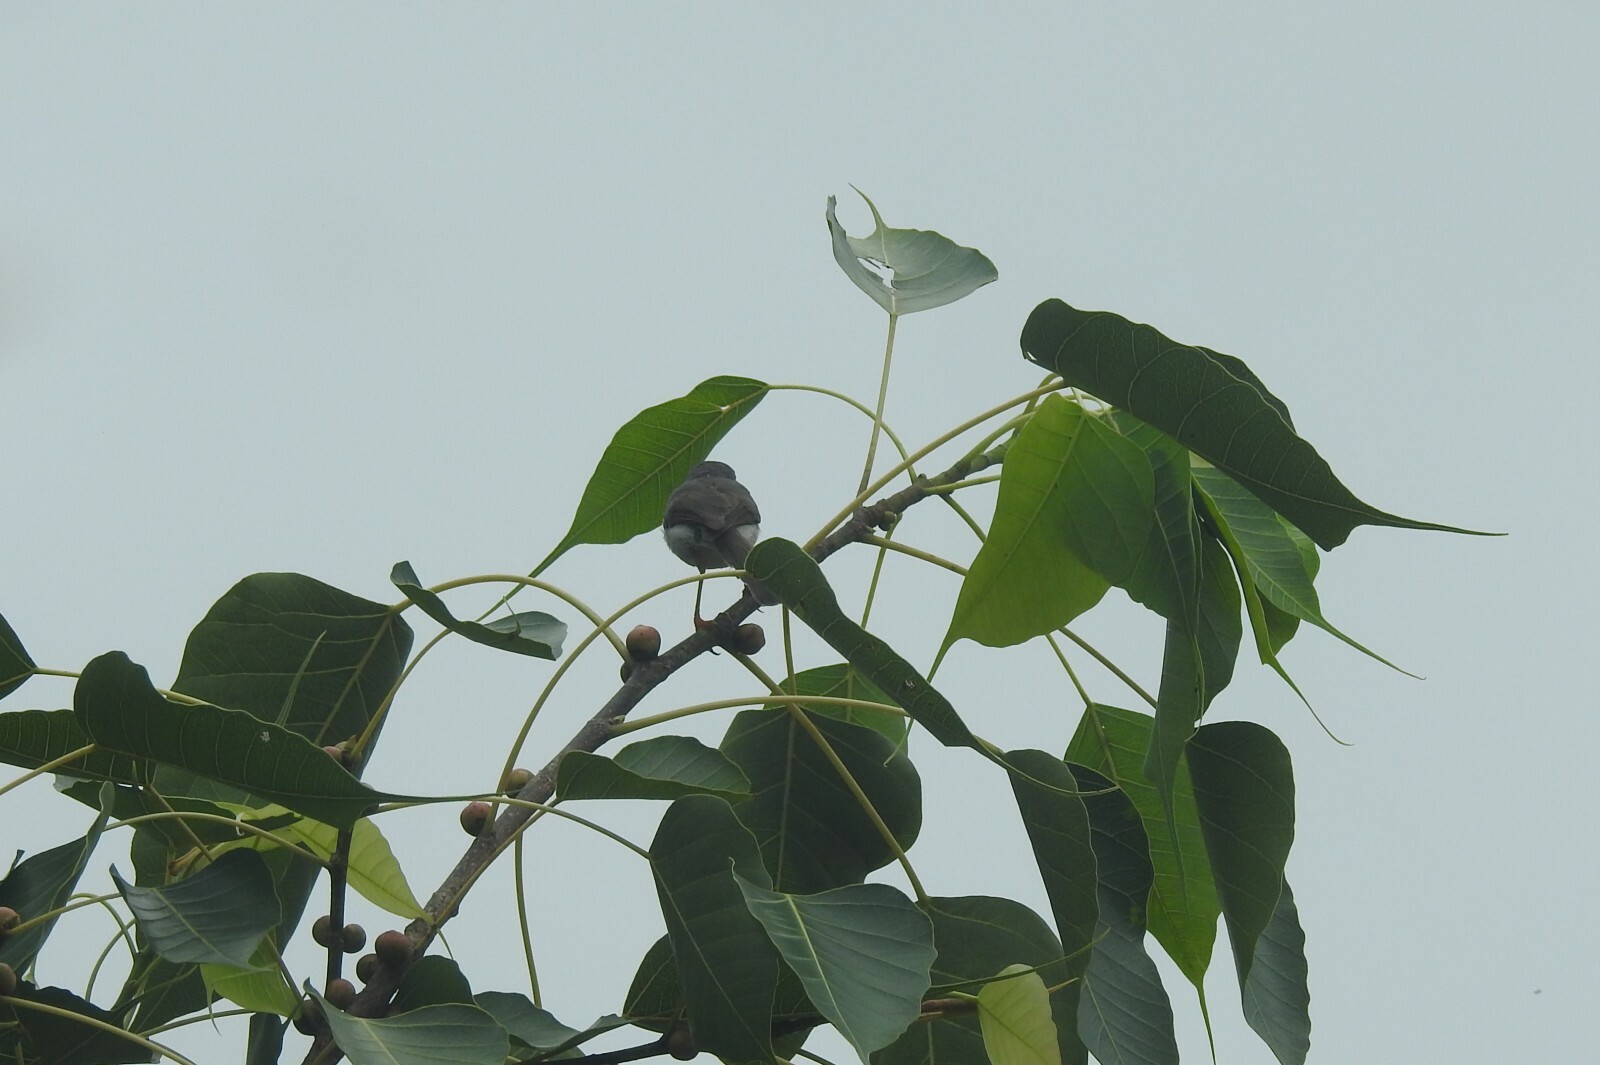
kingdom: Animalia
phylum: Chordata
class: Aves
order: Passeriformes
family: Cisticolidae
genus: Prinia
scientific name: Prinia hodgsonii
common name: Grey-breasted prinia
